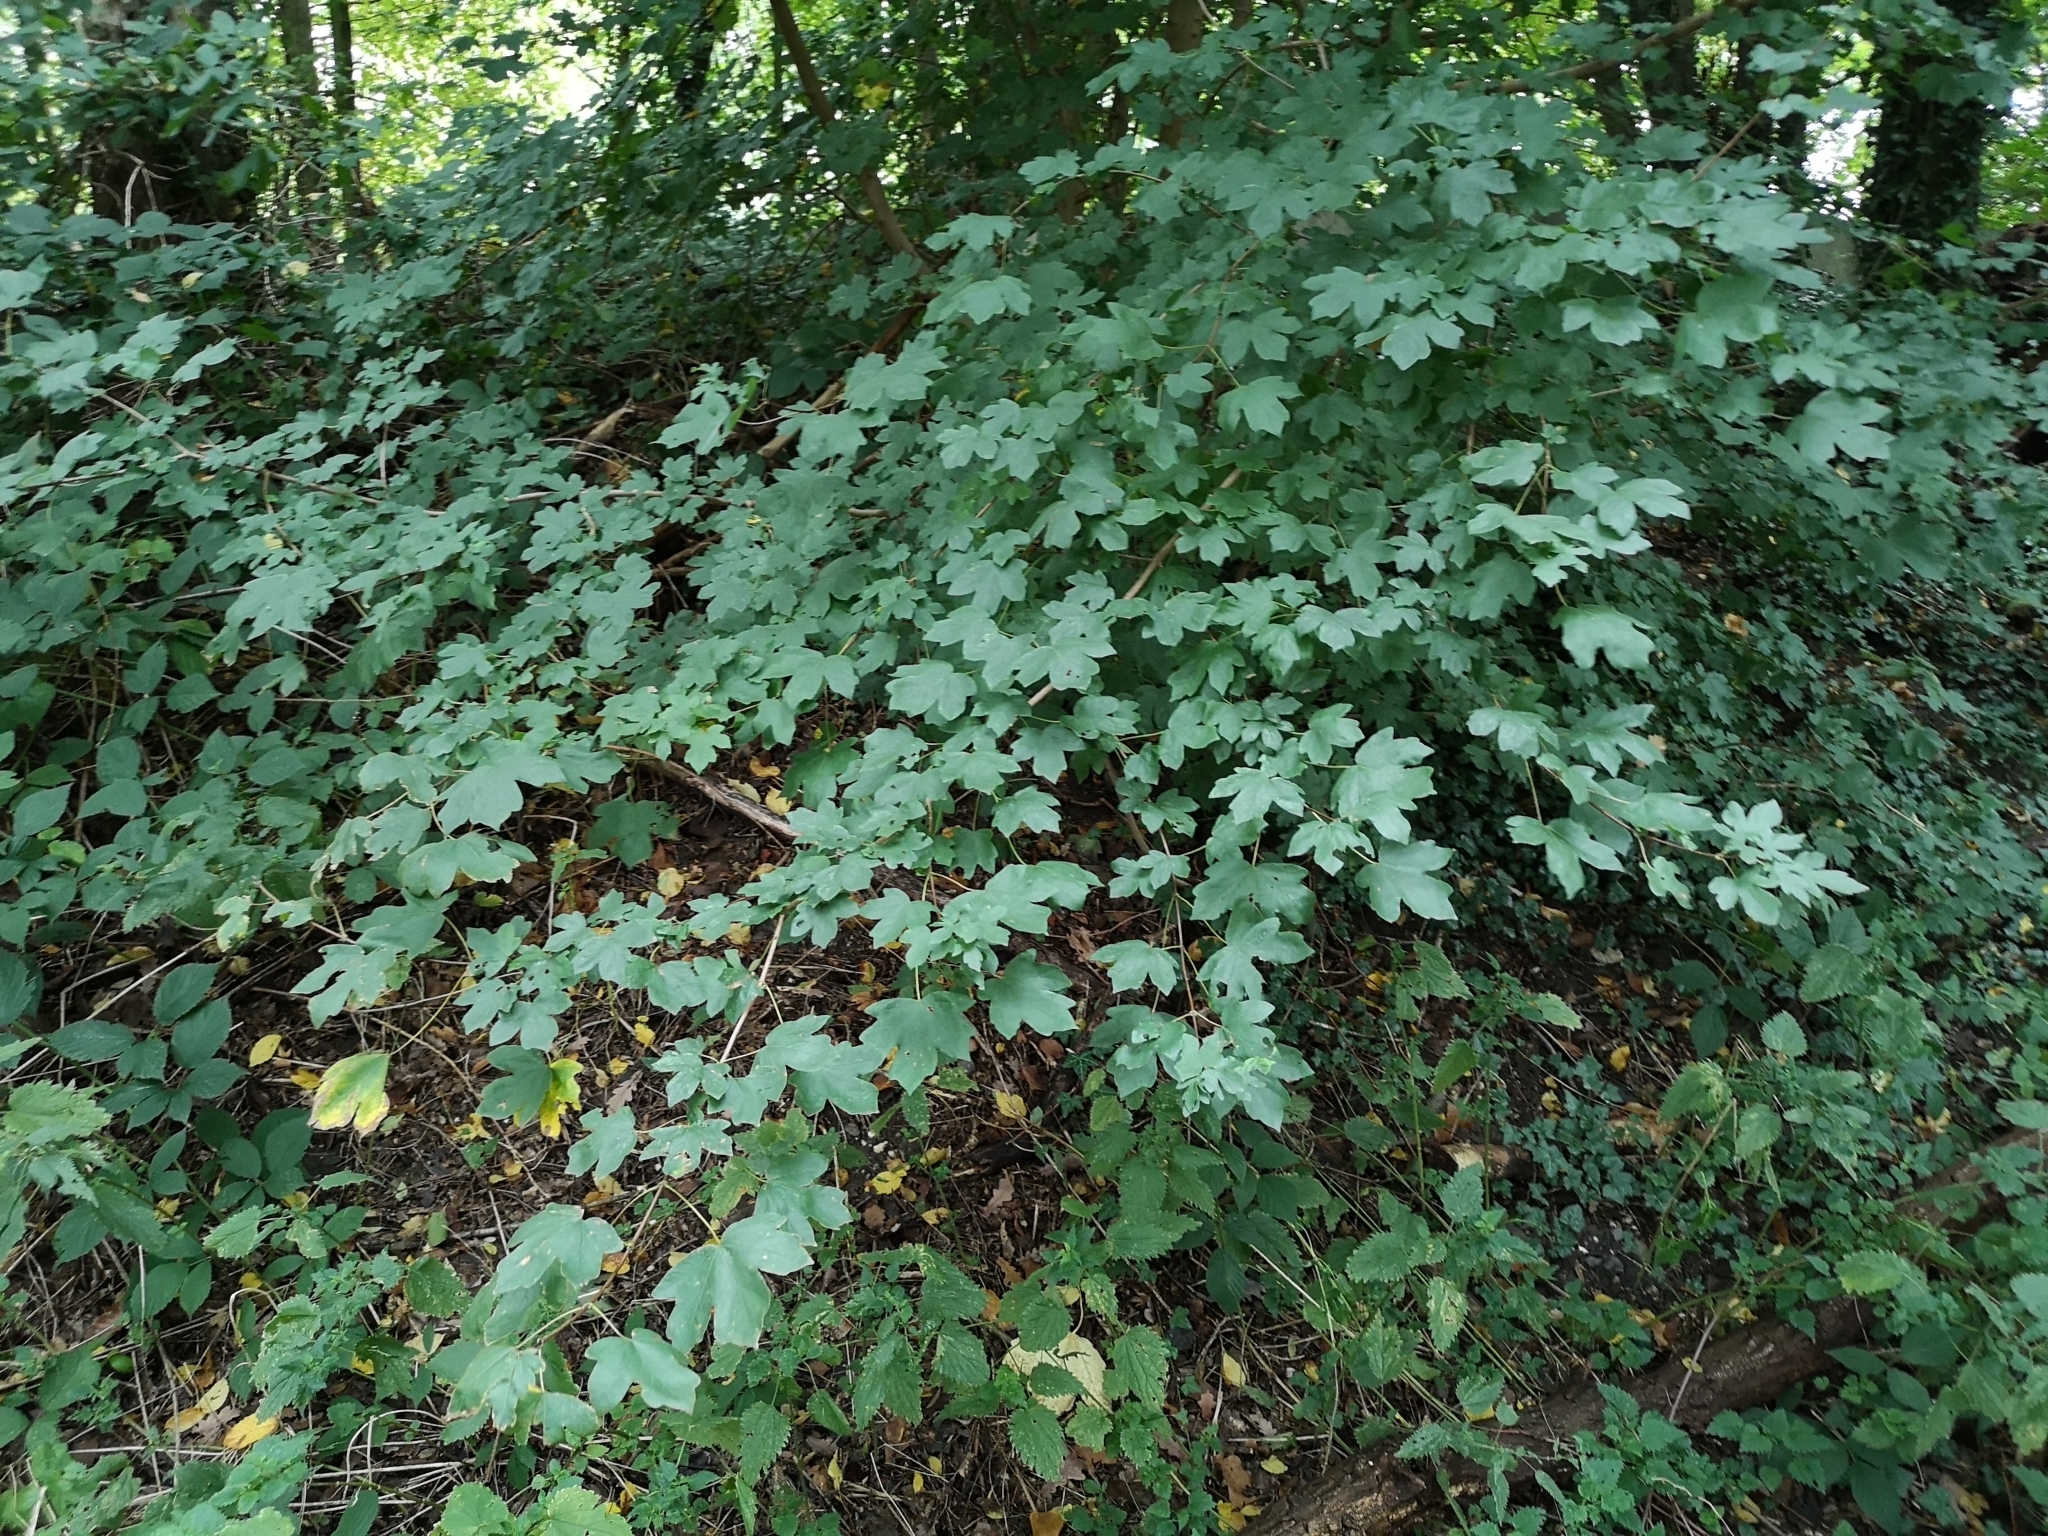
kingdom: Plantae
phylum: Tracheophyta
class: Magnoliopsida
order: Sapindales
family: Sapindaceae
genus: Acer
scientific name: Acer campestre
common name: Field maple
